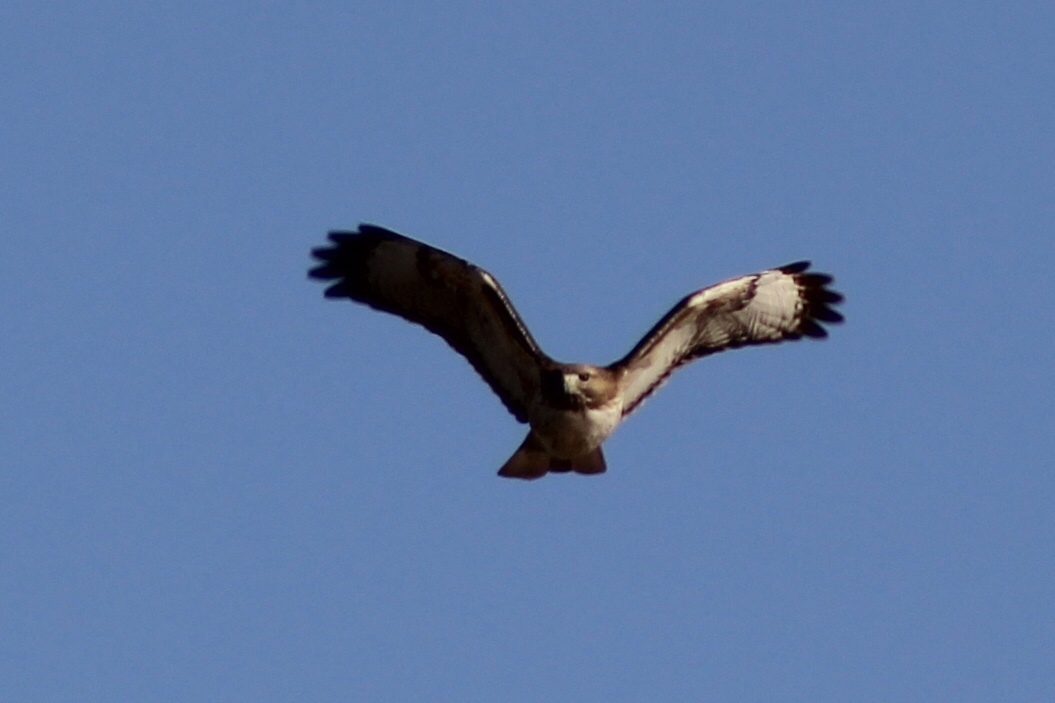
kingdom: Animalia
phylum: Chordata
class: Aves
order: Accipitriformes
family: Accipitridae
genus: Buteo
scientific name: Buteo jamaicensis
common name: Red-tailed hawk
